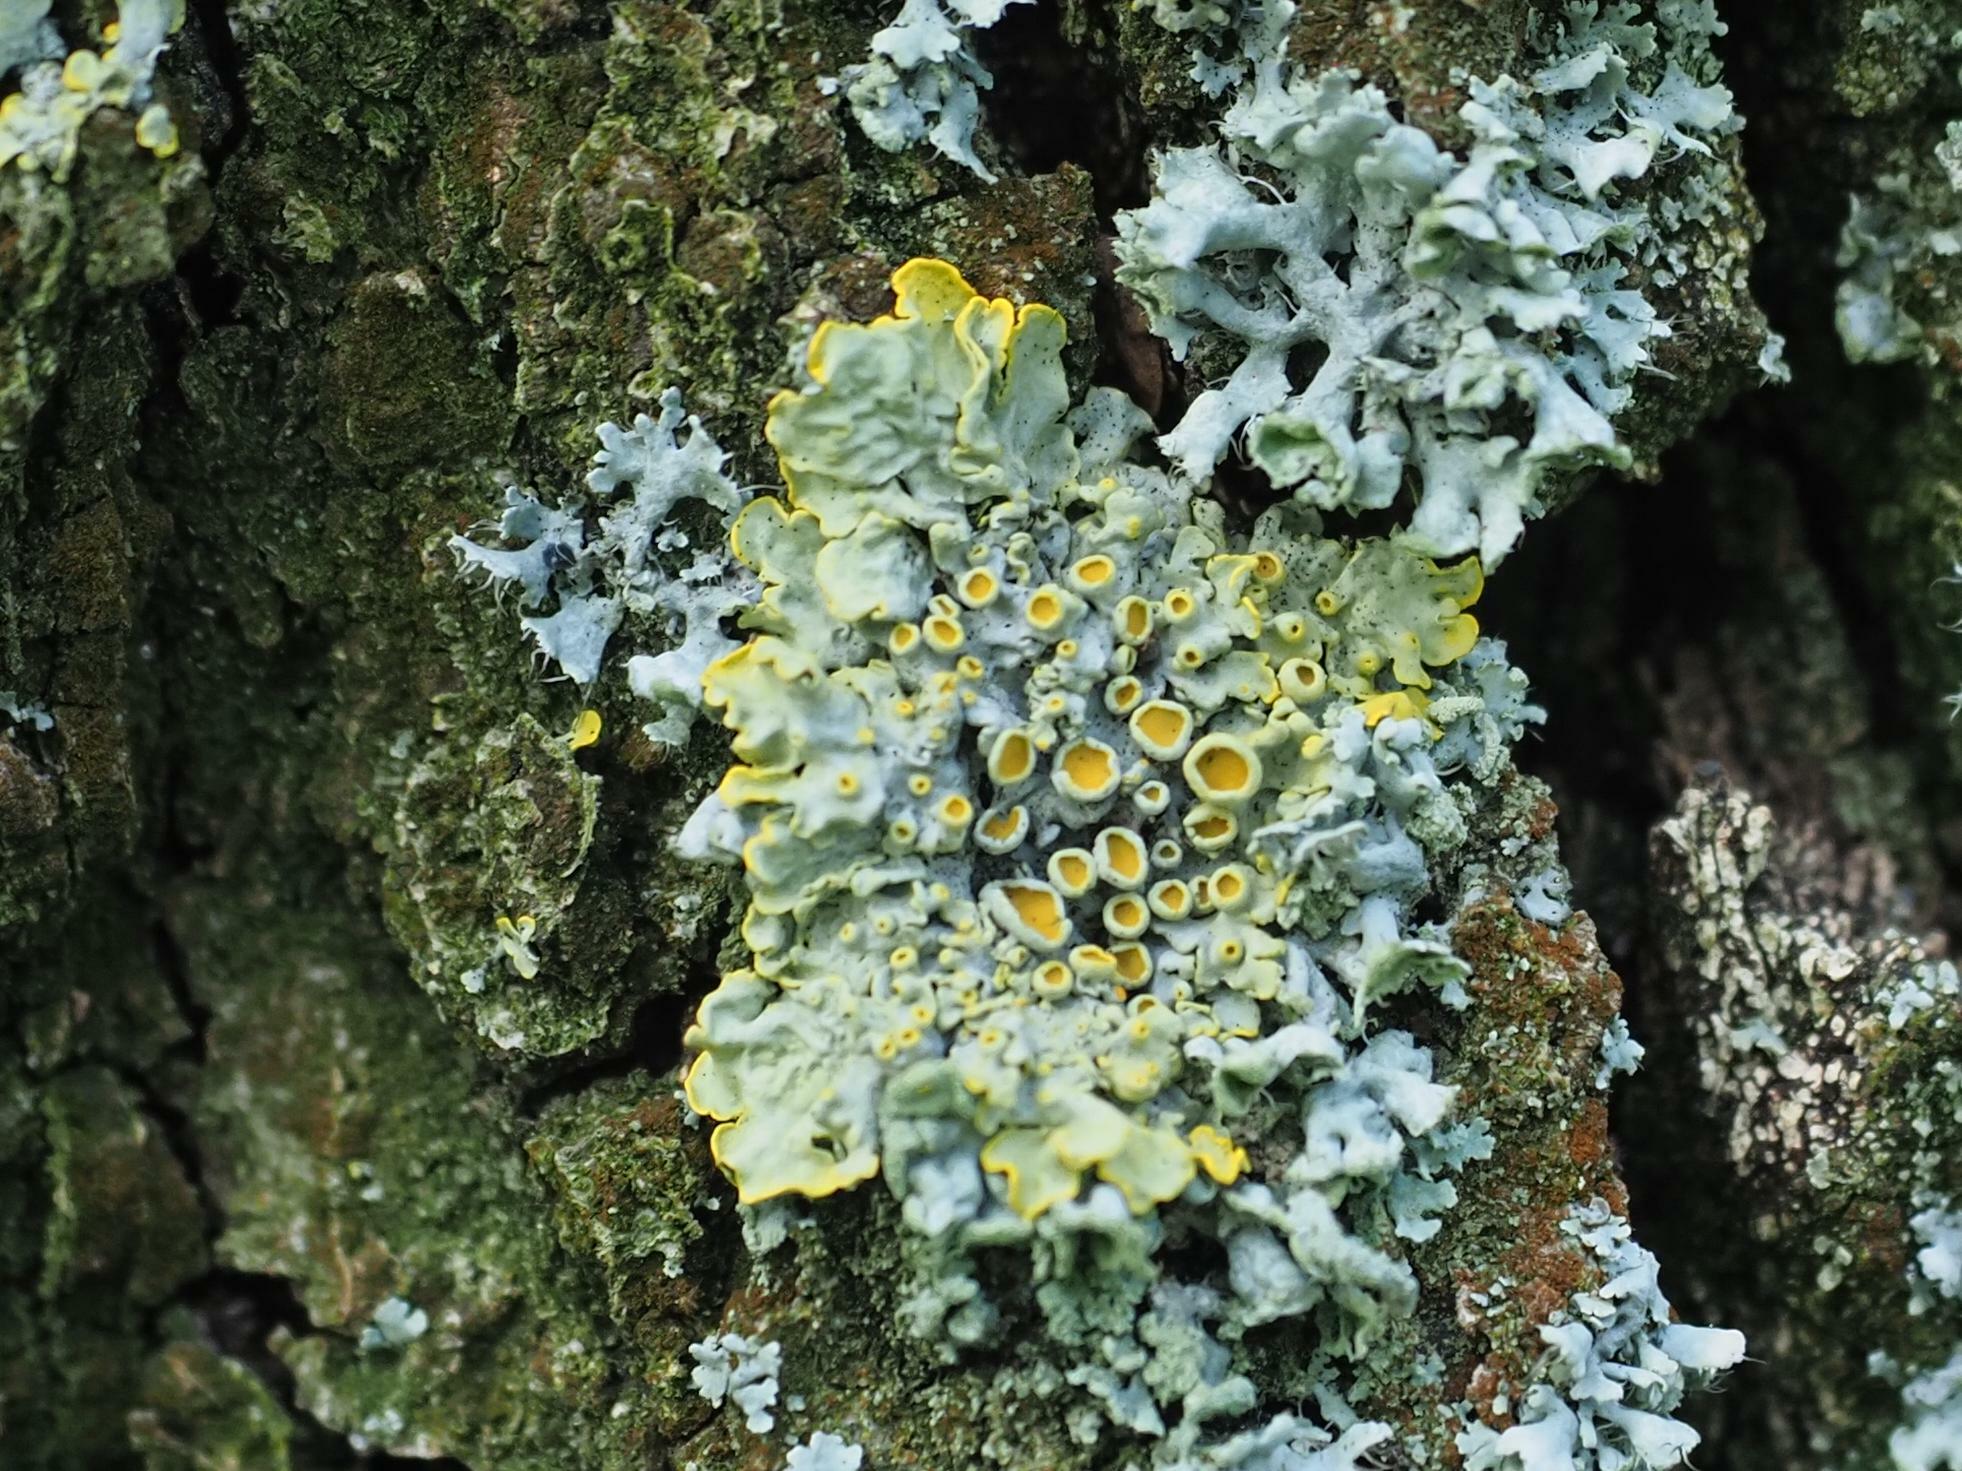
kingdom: Fungi
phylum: Ascomycota
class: Lecanoromycetes
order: Teloschistales
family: Teloschistaceae
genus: Xanthoria
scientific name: Xanthoria parietina
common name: Common orange lichen
